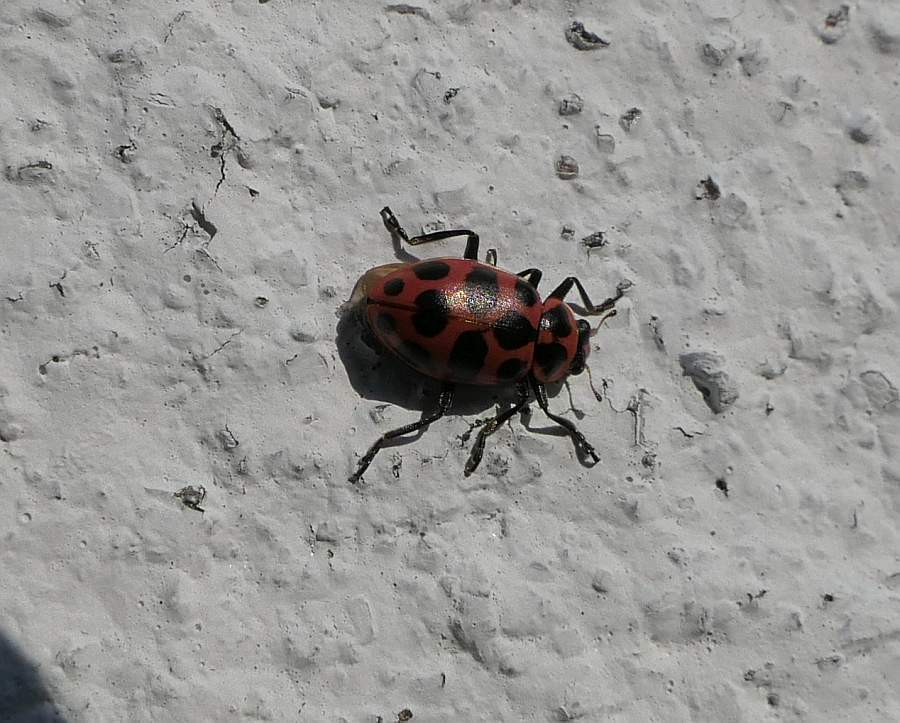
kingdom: Animalia
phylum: Arthropoda
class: Insecta
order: Coleoptera
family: Coccinellidae
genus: Coleomegilla
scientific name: Coleomegilla maculata
